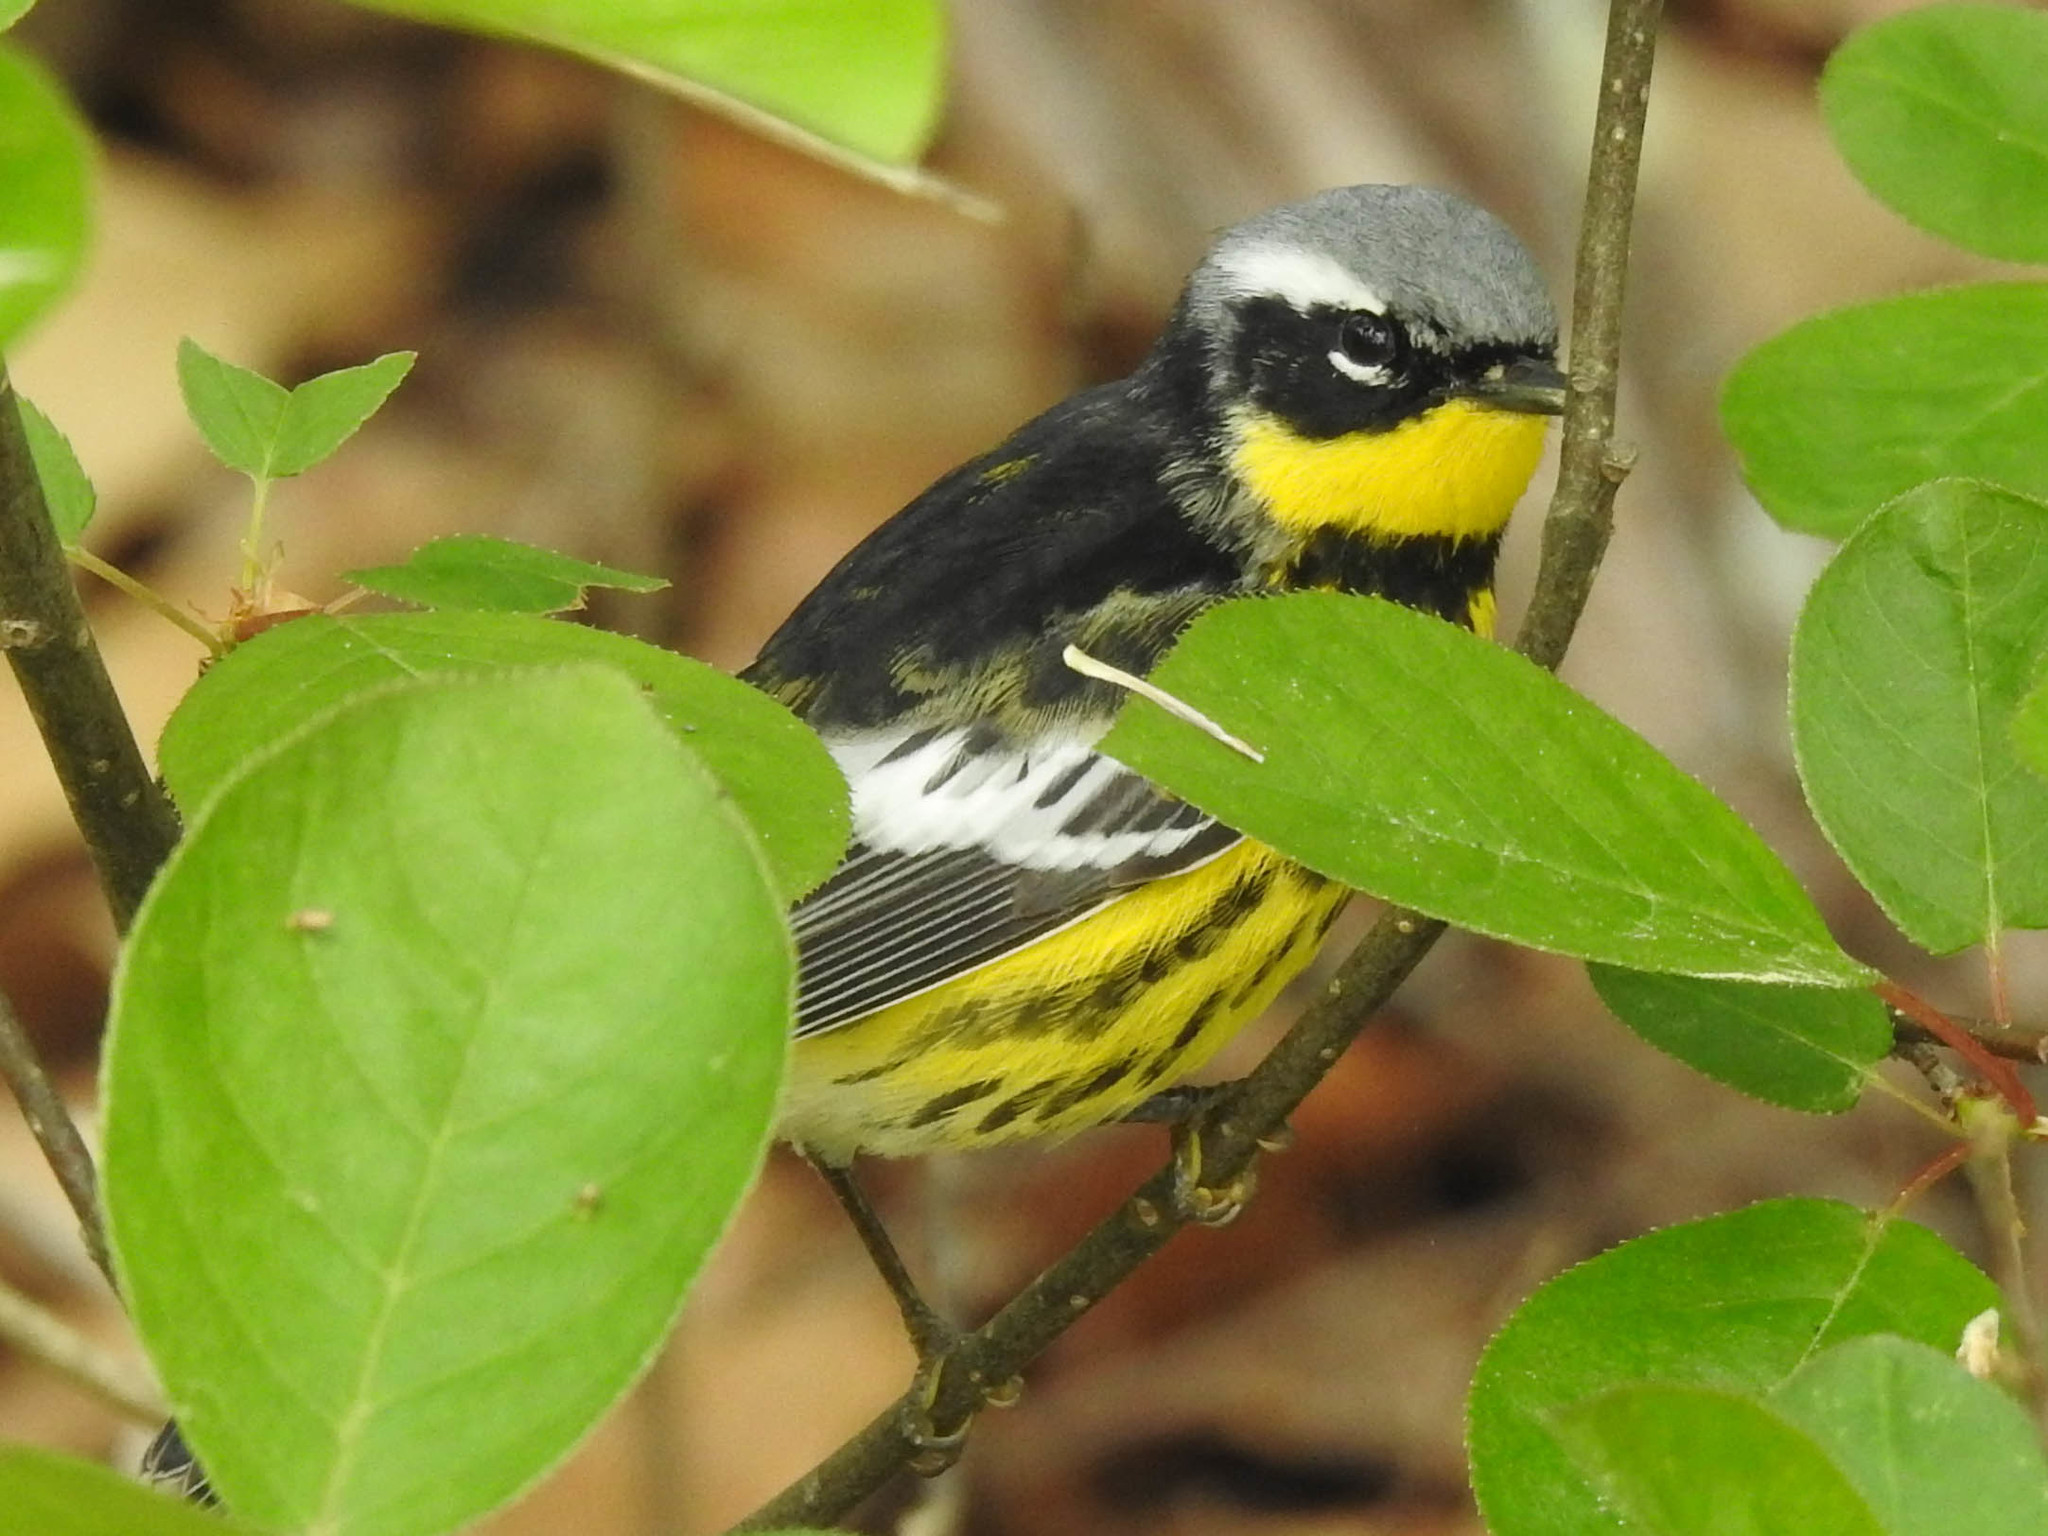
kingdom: Animalia
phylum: Chordata
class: Aves
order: Passeriformes
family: Parulidae
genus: Setophaga
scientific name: Setophaga magnolia
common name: Magnolia warbler
